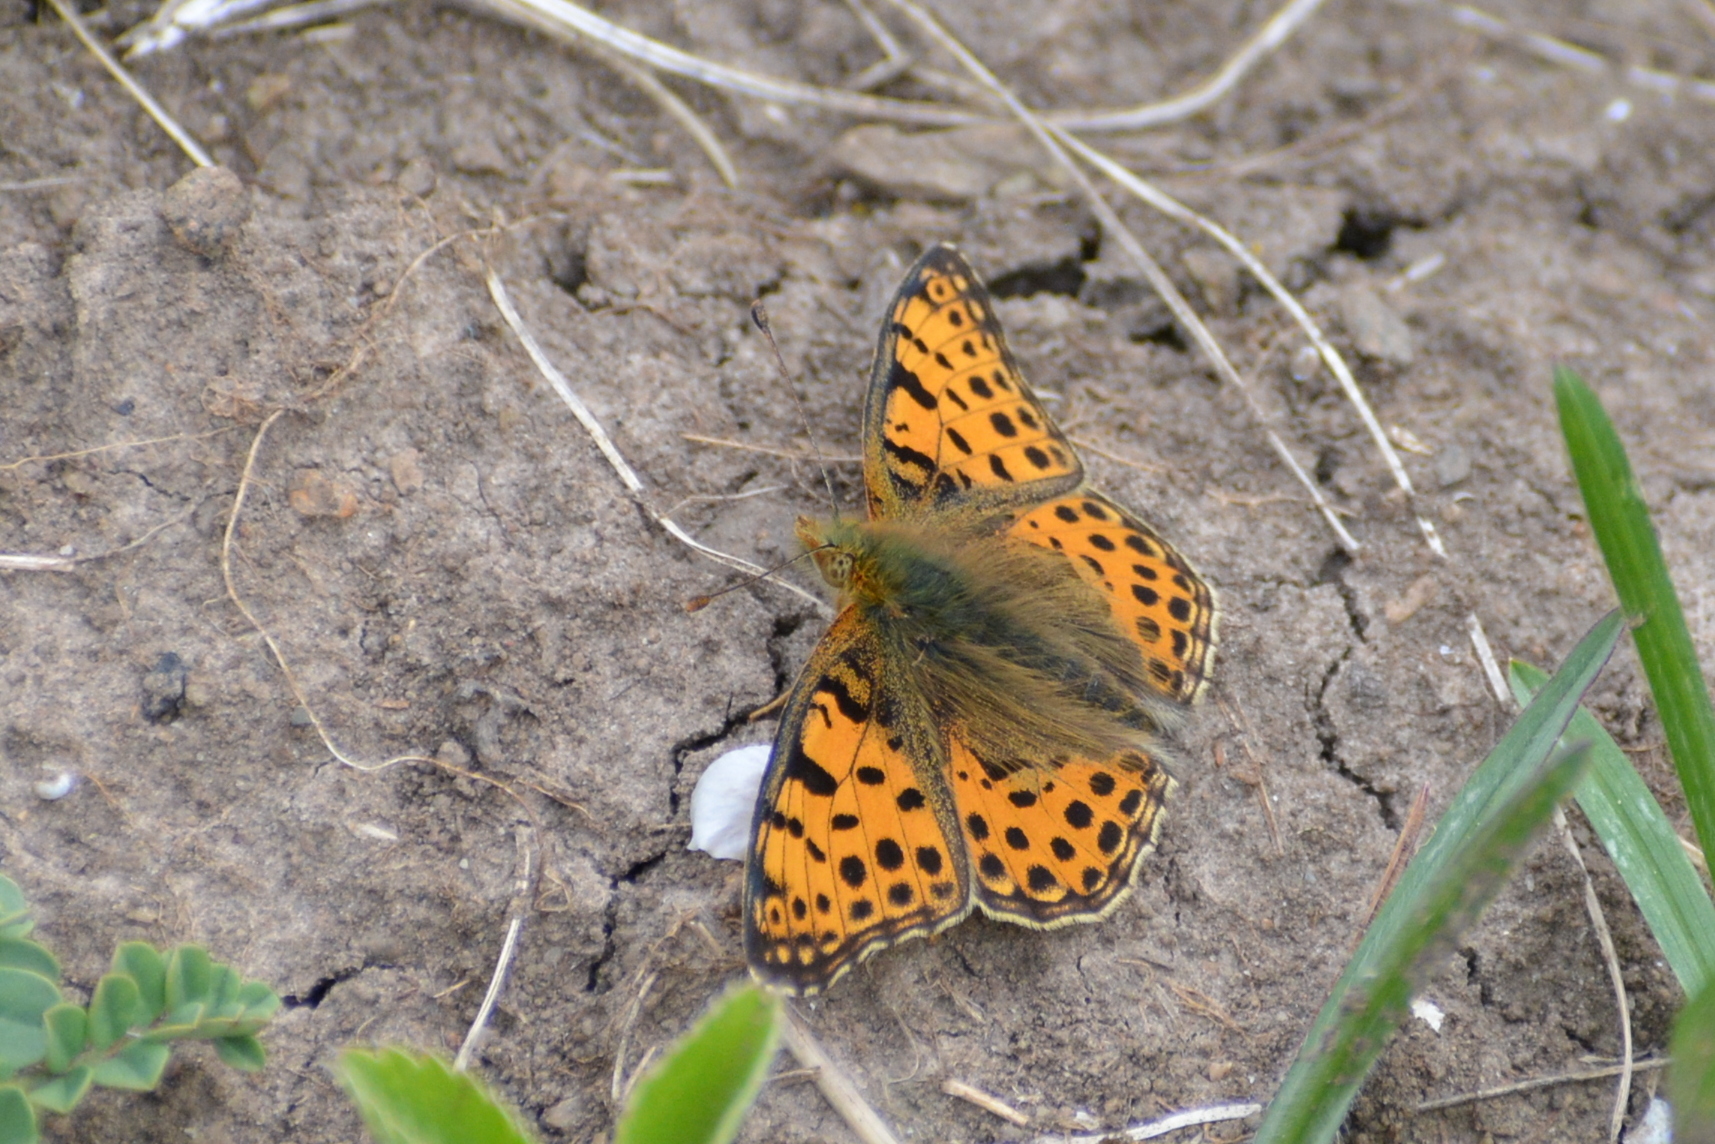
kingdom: Animalia
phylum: Arthropoda
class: Insecta
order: Lepidoptera
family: Nymphalidae
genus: Issoria
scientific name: Issoria lathonia
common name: Queen of spain fritillary
